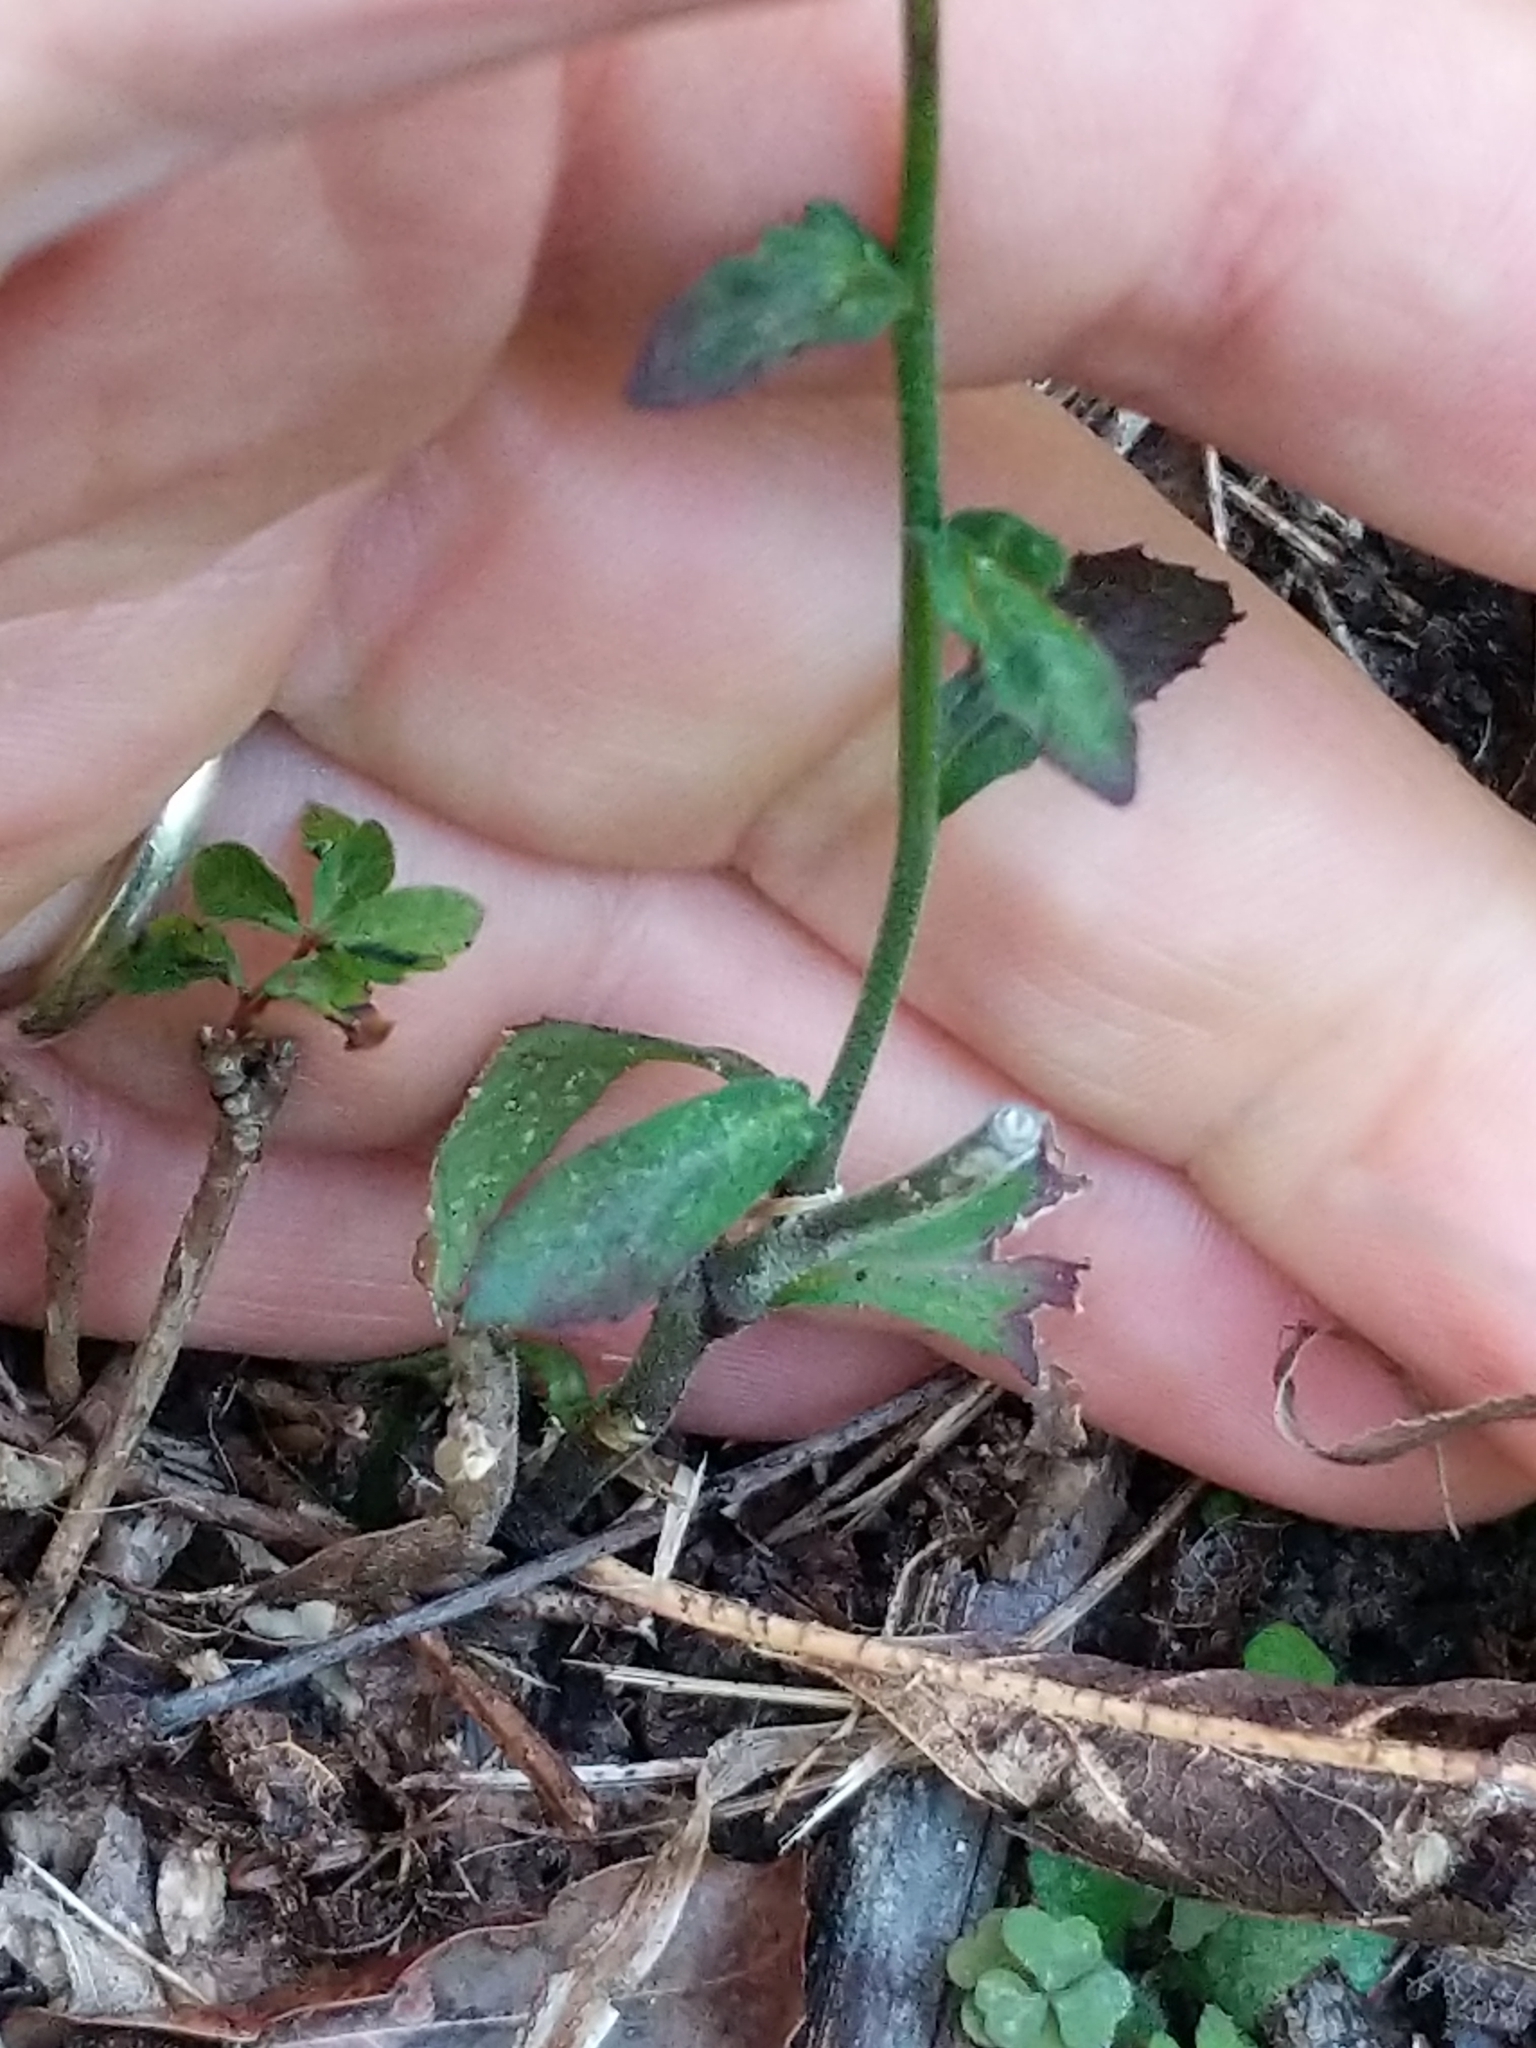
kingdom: Plantae
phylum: Tracheophyta
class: Magnoliopsida
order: Asterales
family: Campanulaceae
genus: Lobelia
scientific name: Lobelia puberula
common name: Purple dewdrop
